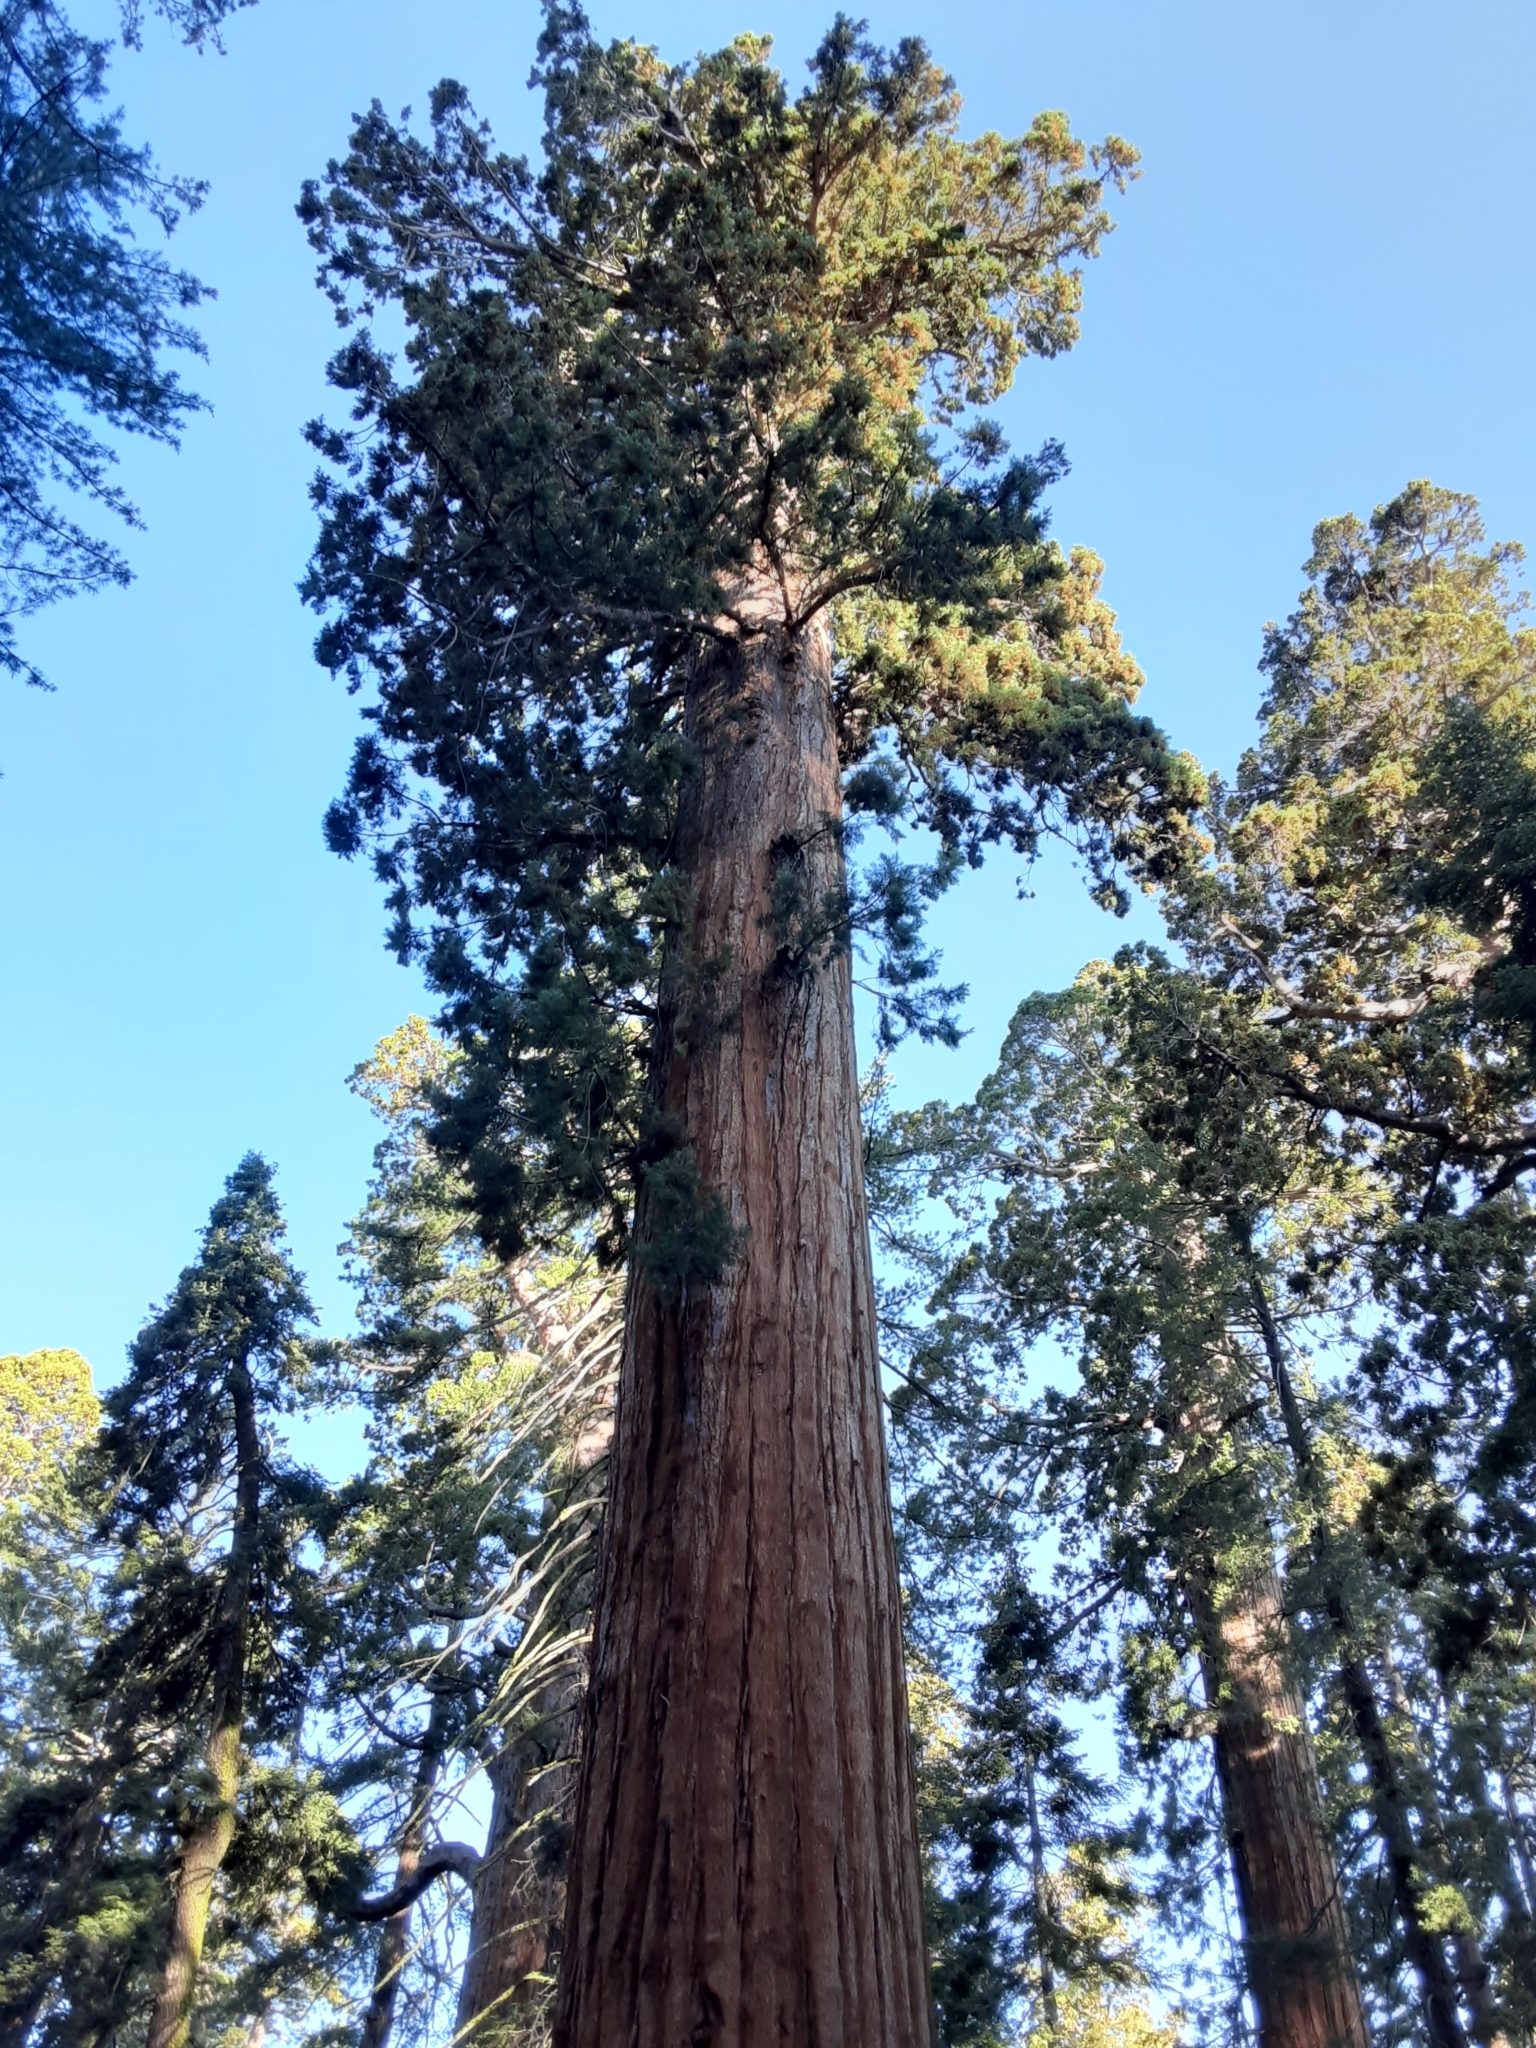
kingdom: Plantae
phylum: Tracheophyta
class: Pinopsida
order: Pinales
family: Cupressaceae
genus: Sequoiadendron
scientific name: Sequoiadendron giganteum
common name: Wellingtonia
